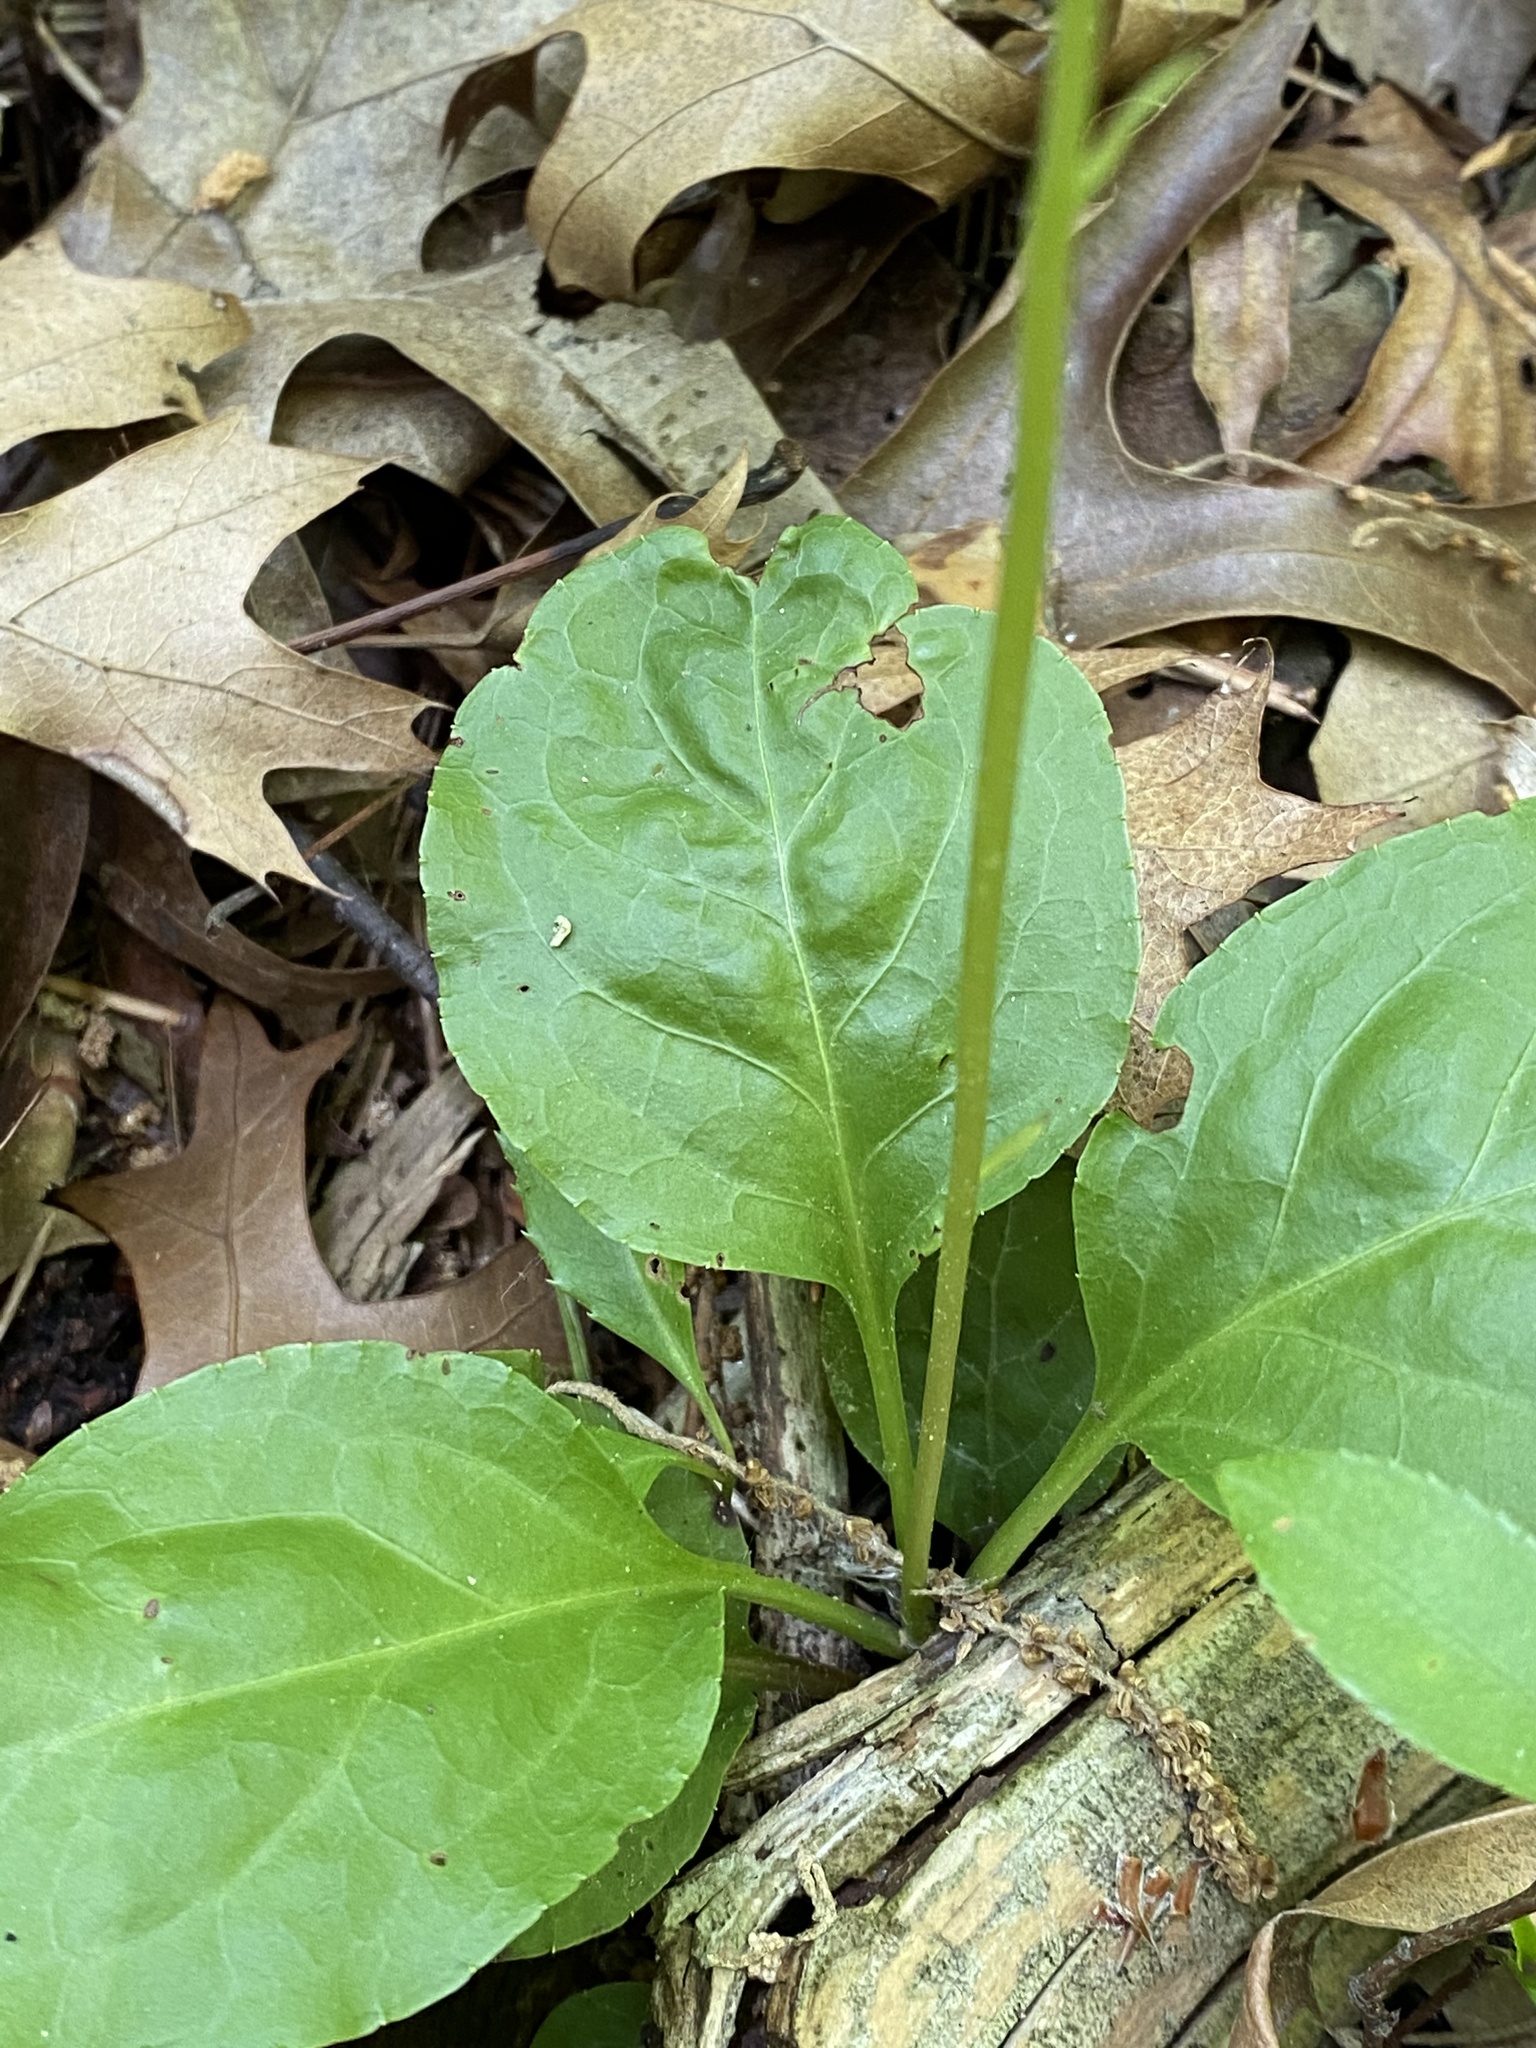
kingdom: Plantae
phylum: Tracheophyta
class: Magnoliopsida
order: Ericales
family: Ericaceae
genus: Pyrola
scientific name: Pyrola elliptica
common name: Shinleaf
